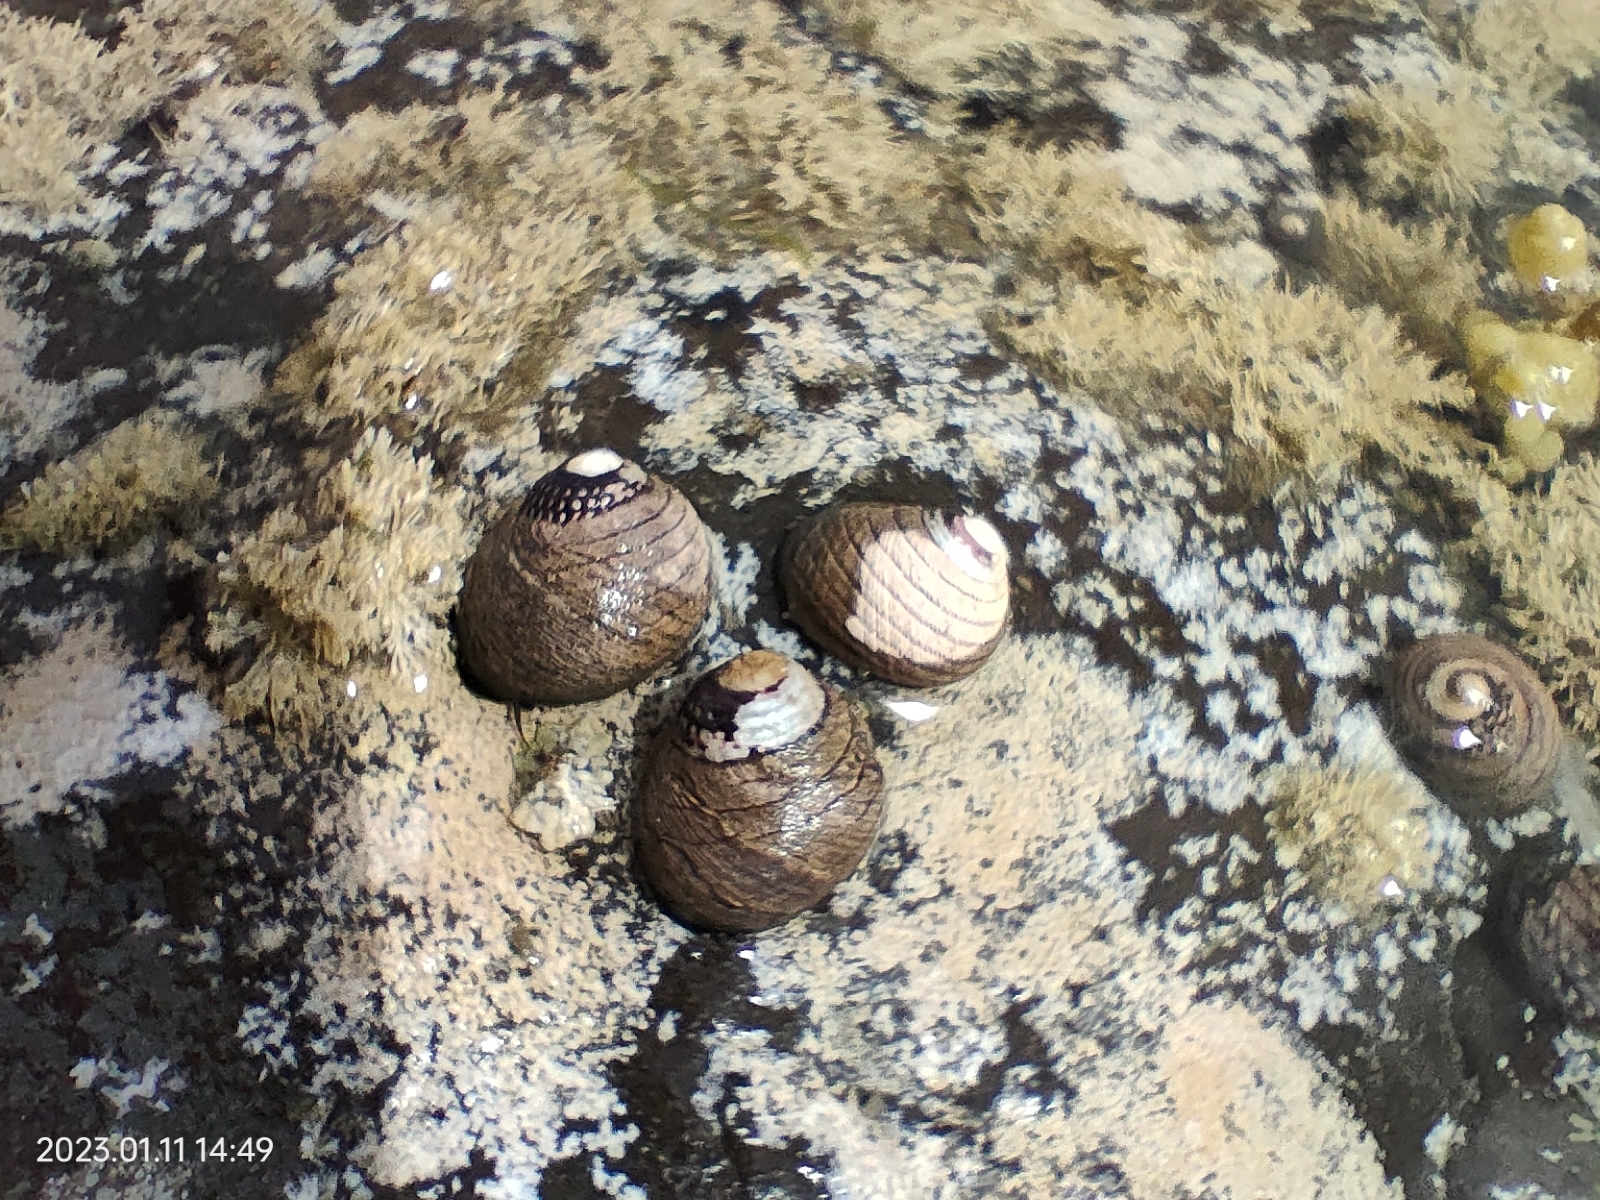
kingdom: Animalia
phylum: Mollusca
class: Gastropoda
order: Trochida
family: Trochidae
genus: Diloma
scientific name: Diloma aethiops
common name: Scorched monodont
